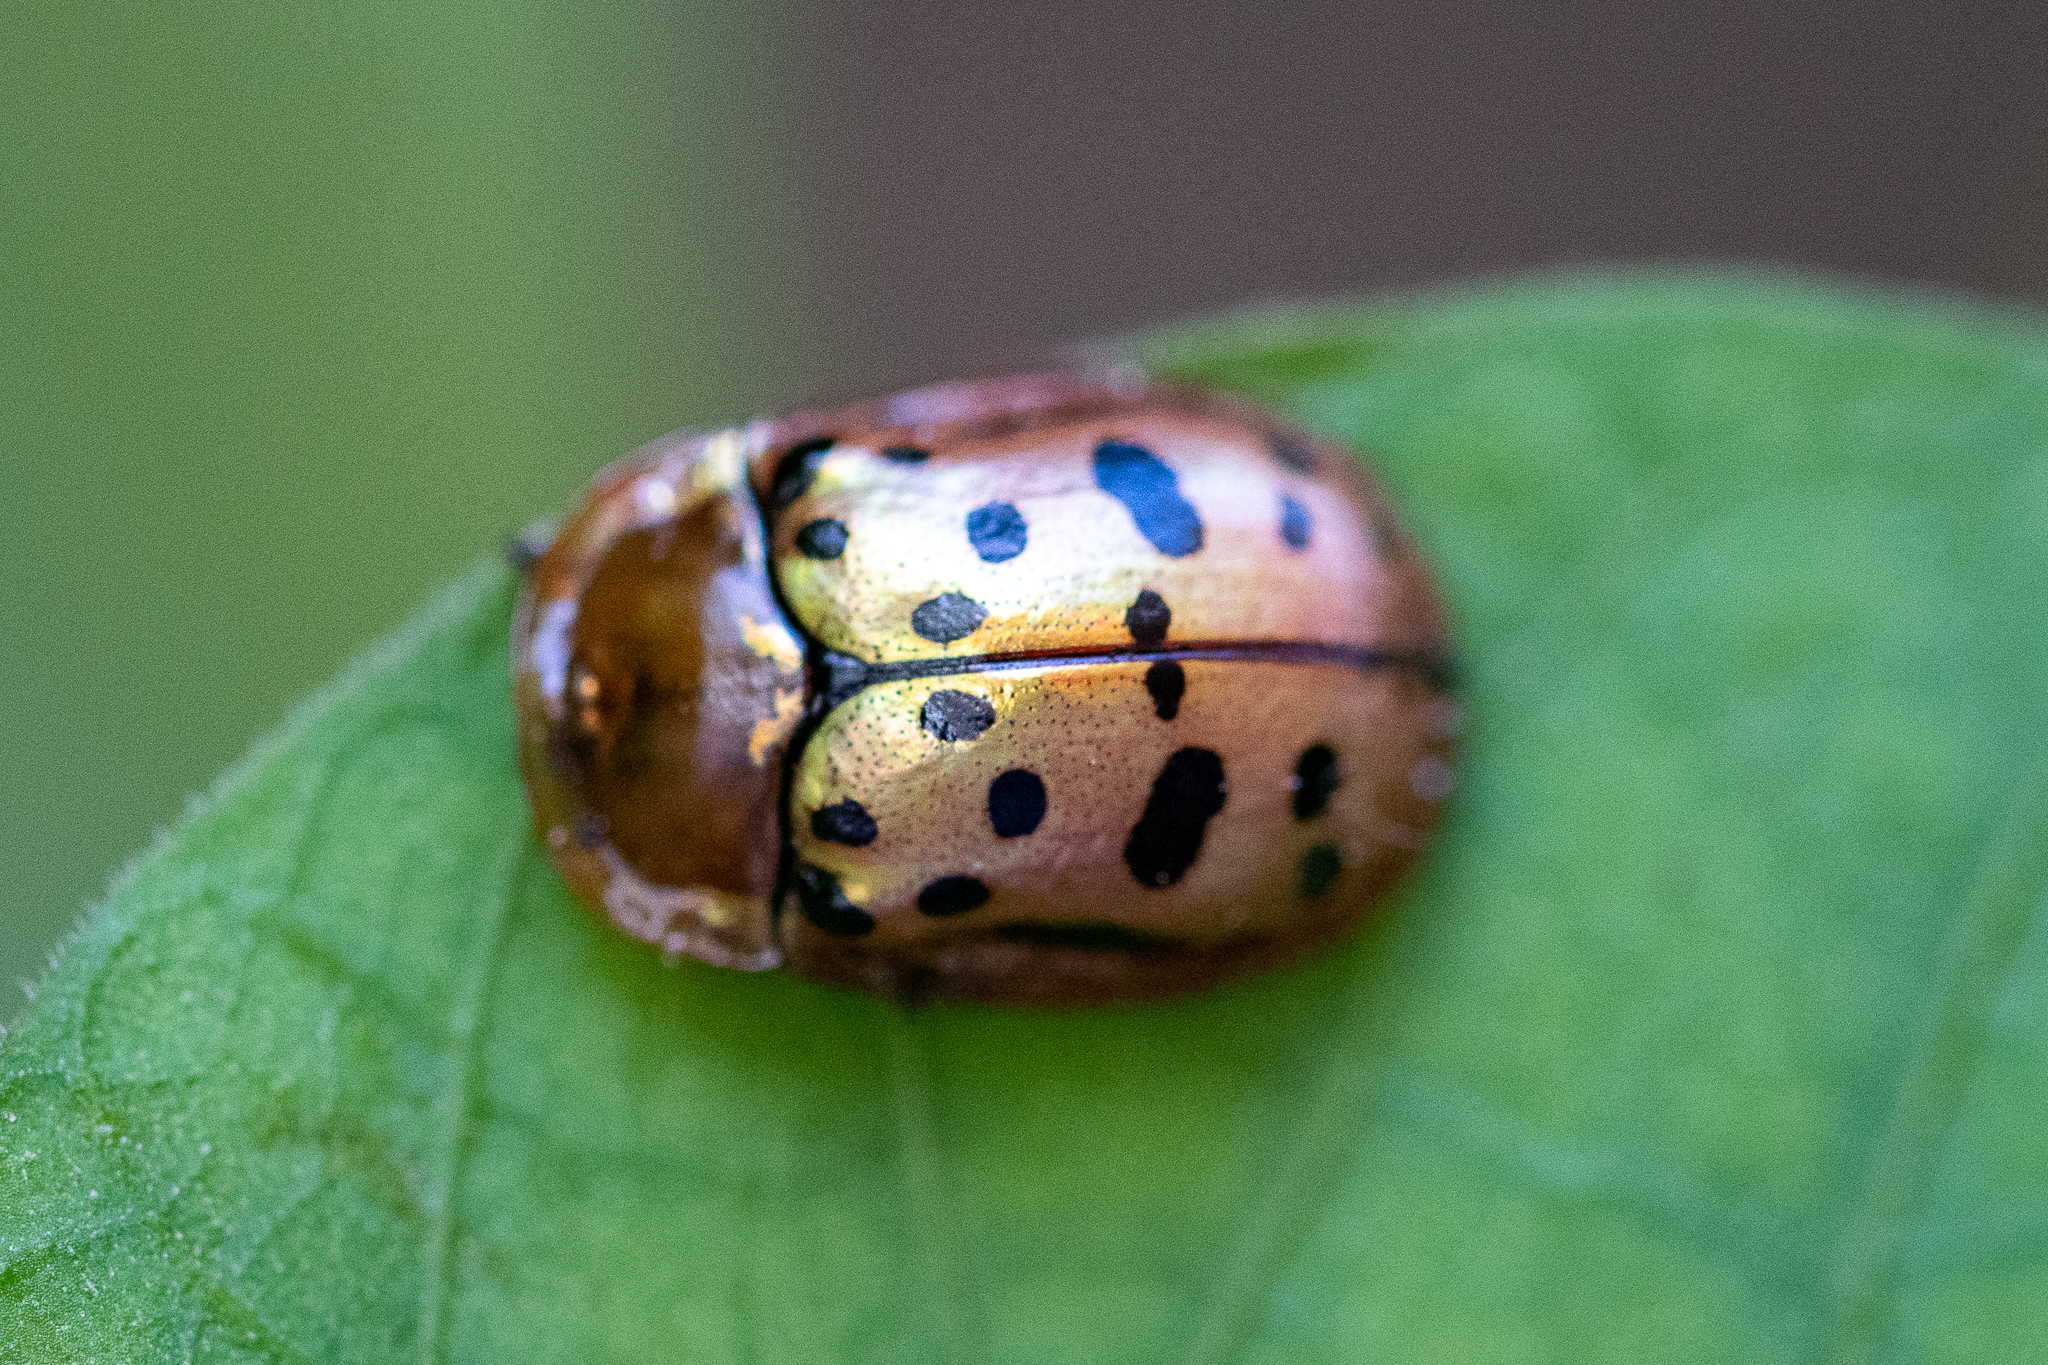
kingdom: Animalia
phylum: Arthropoda
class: Insecta
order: Coleoptera
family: Chrysomelidae
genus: Conchyloctenia
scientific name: Conchyloctenia punctata
